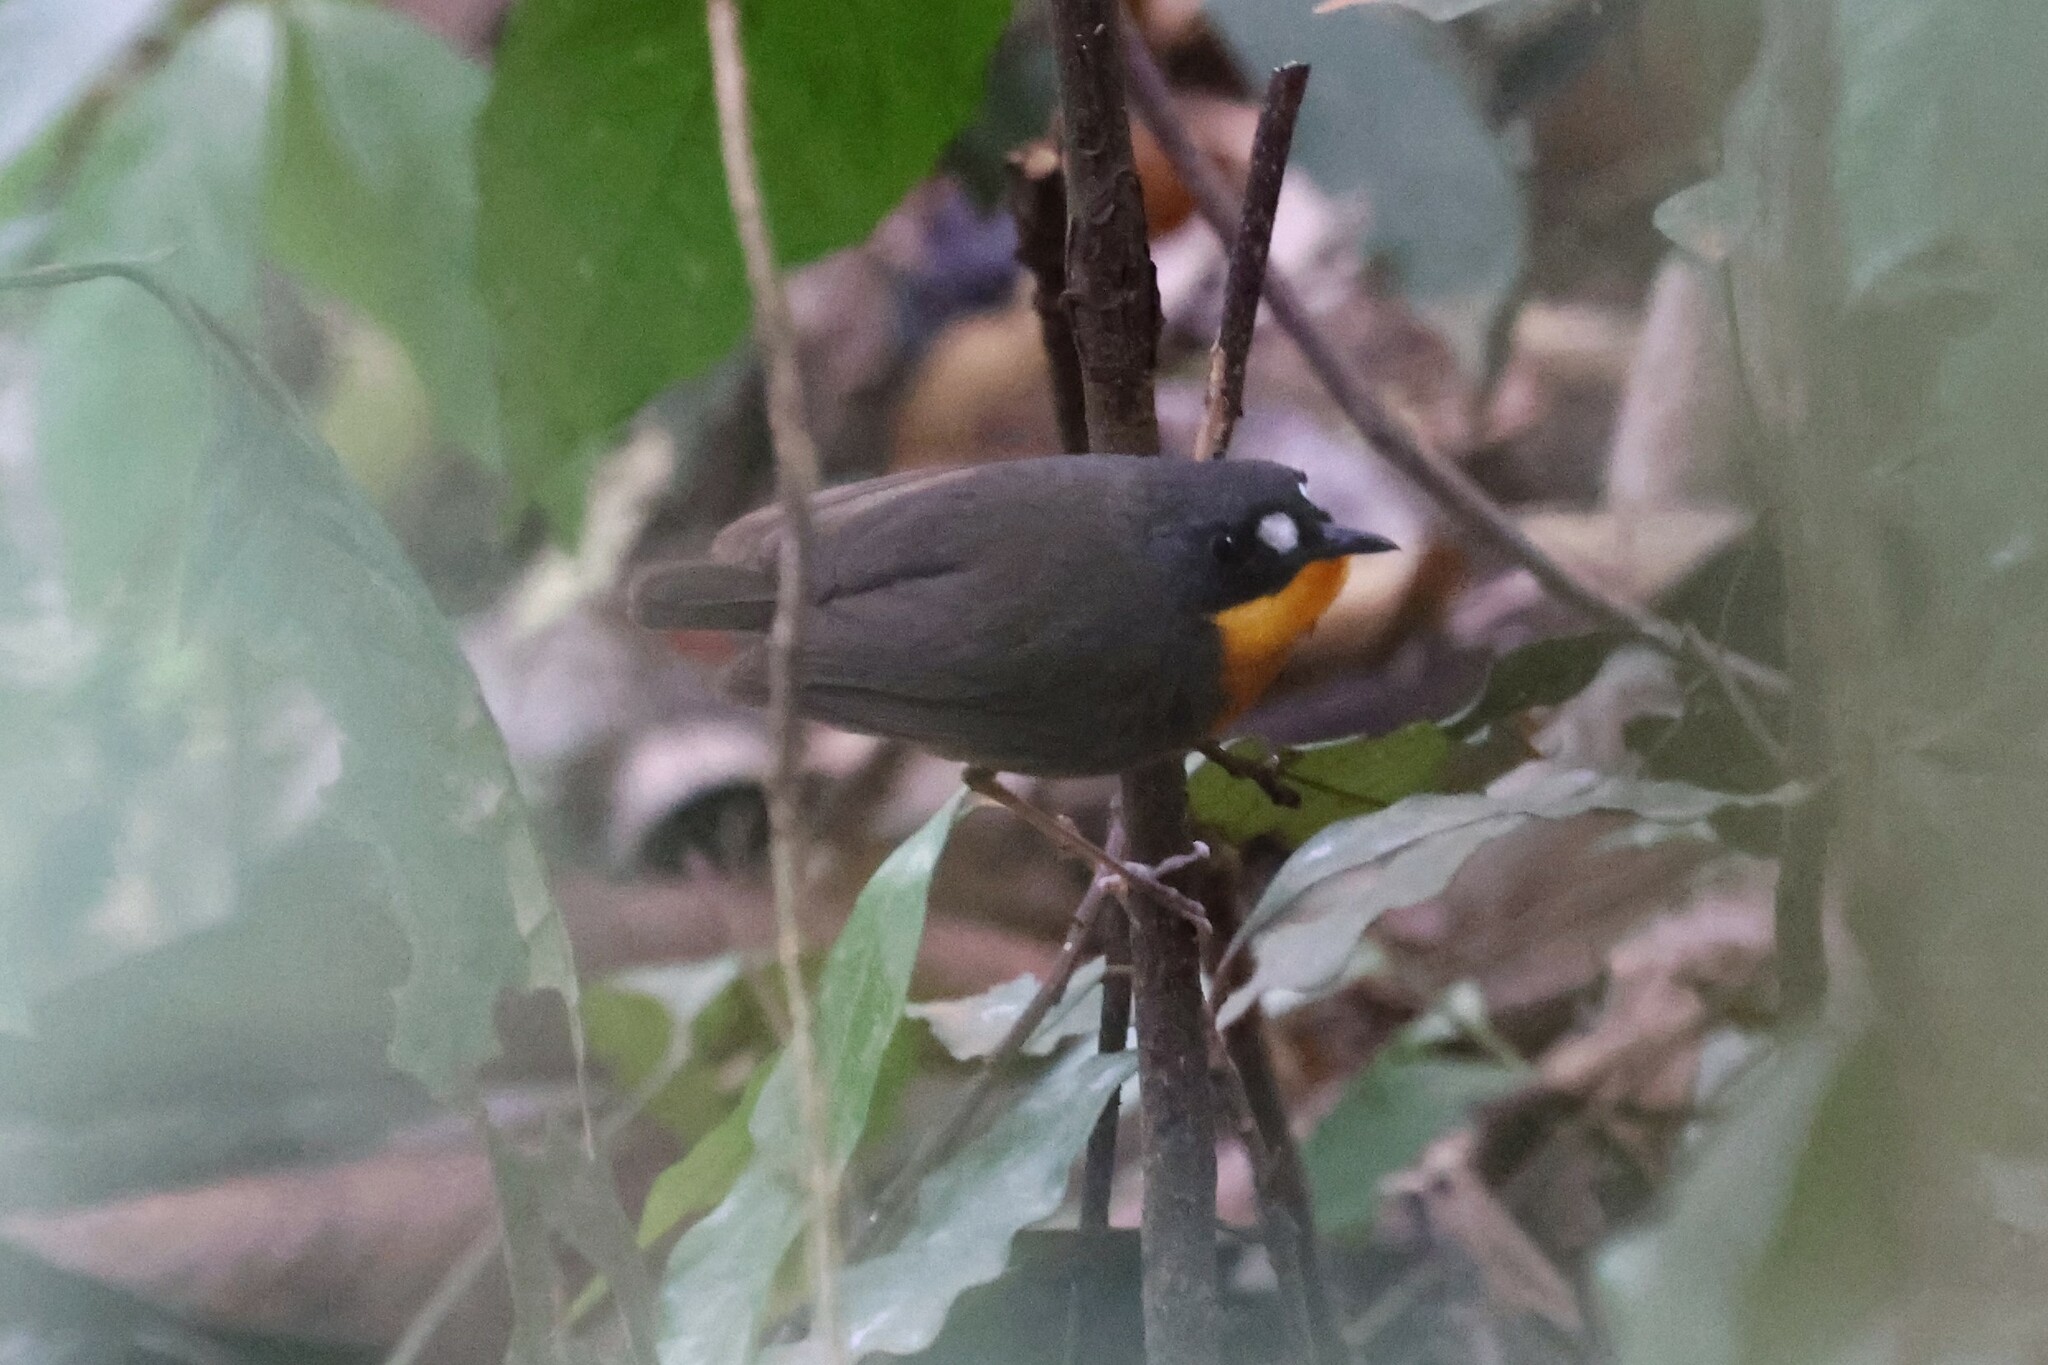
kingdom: Animalia
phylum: Chordata
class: Aves
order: Passeriformes
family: Muscicapidae
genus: Stiphrornis
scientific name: Stiphrornis
